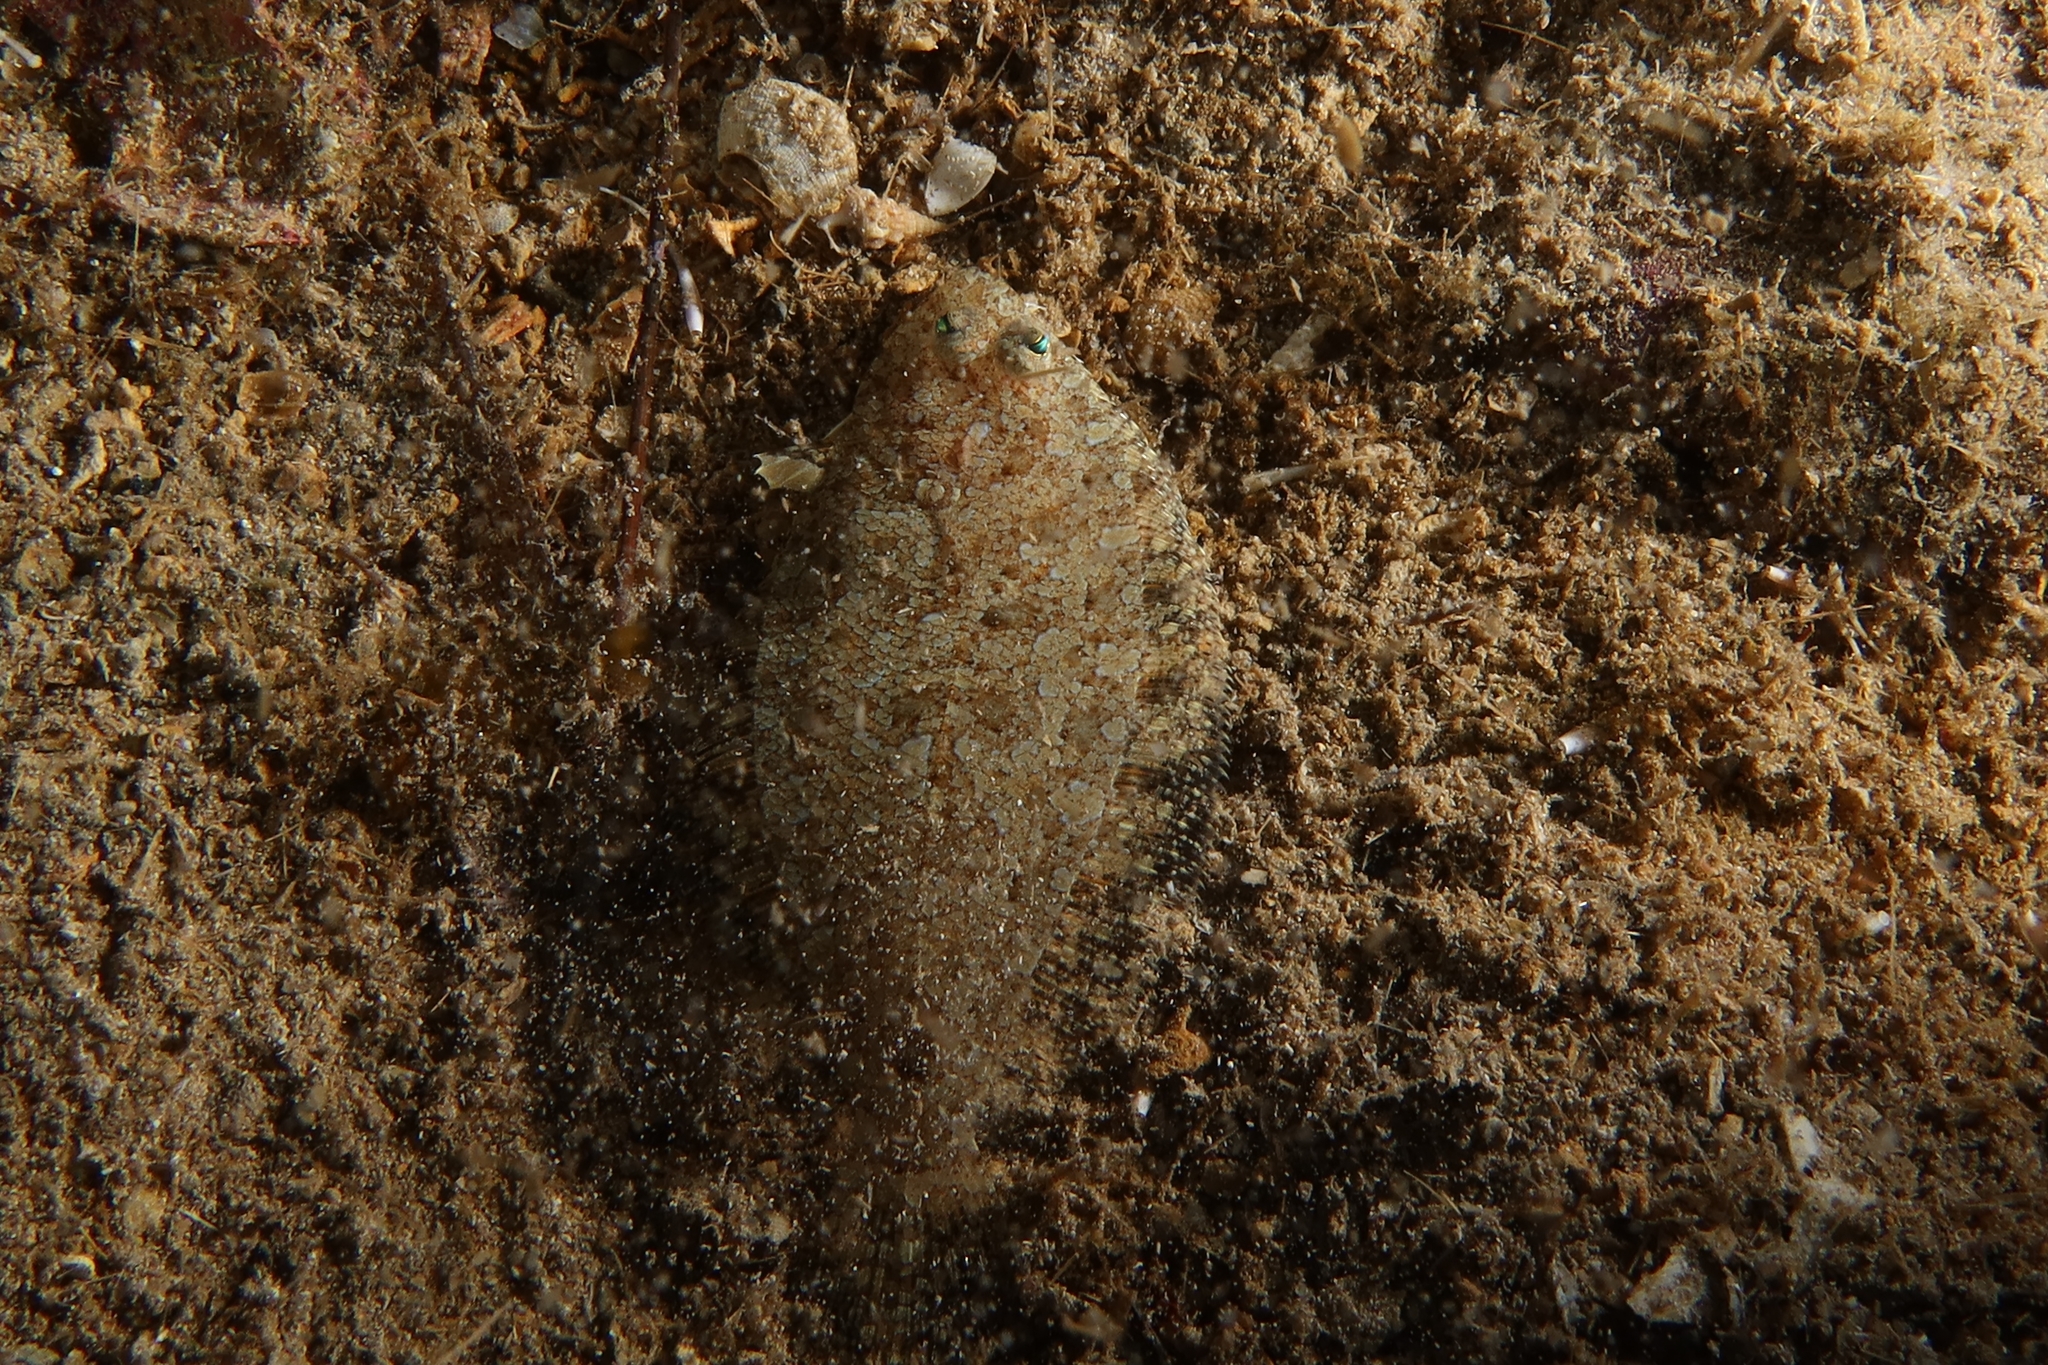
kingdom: Animalia
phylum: Chordata
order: Pleuronectiformes
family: Bothidae
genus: Arnoglossus
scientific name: Arnoglossus thori
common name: Thor's scaldfish
